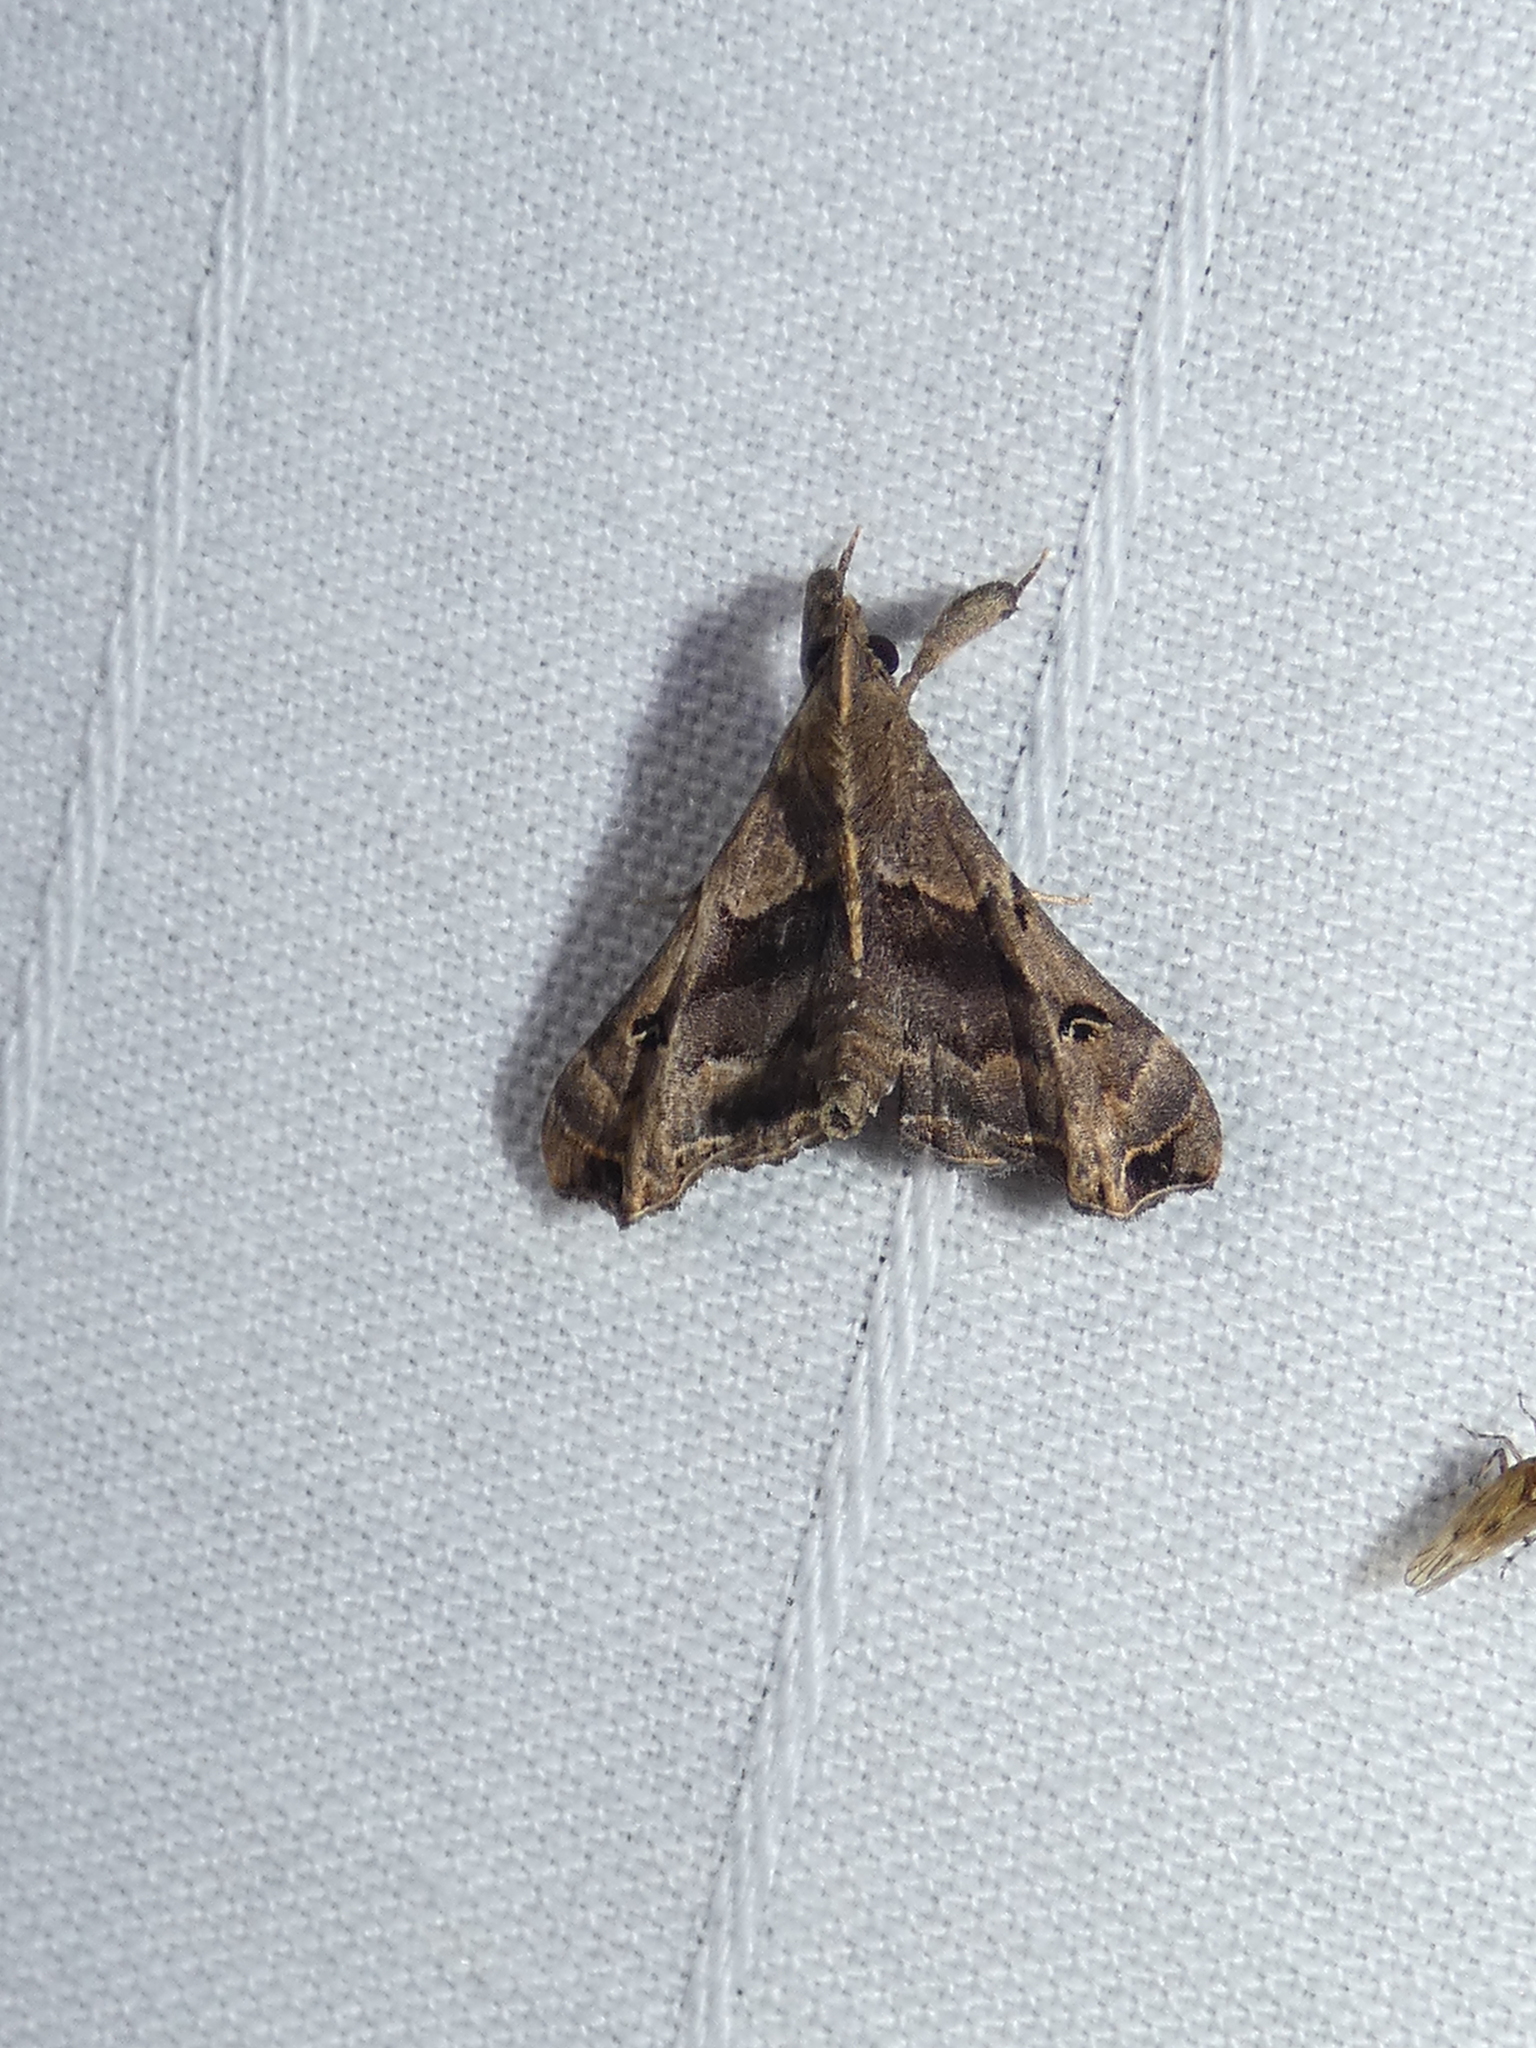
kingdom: Animalia
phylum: Arthropoda
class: Insecta
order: Lepidoptera
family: Erebidae
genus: Palthis
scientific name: Palthis asopialis
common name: Faint-spotted palthis moth
